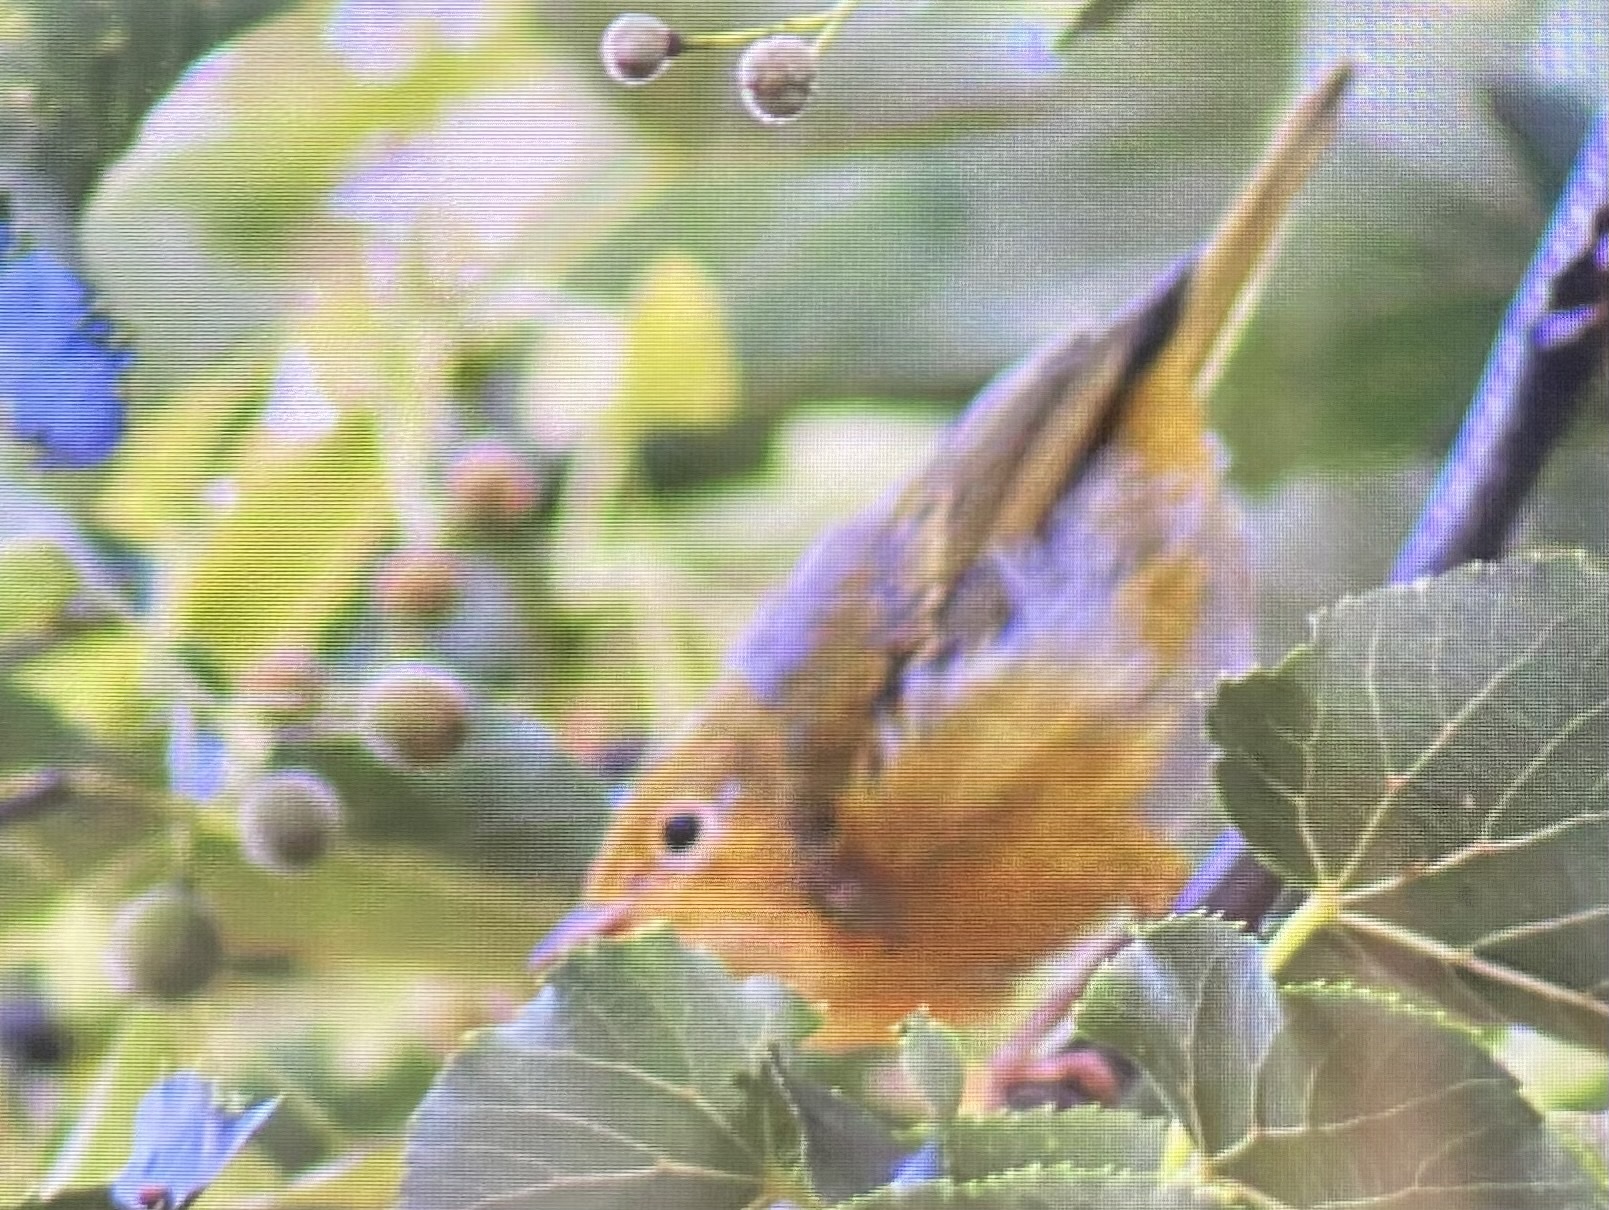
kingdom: Animalia
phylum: Chordata
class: Aves
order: Passeriformes
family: Parulidae
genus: Setophaga
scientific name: Setophaga petechia
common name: Yellow warbler
